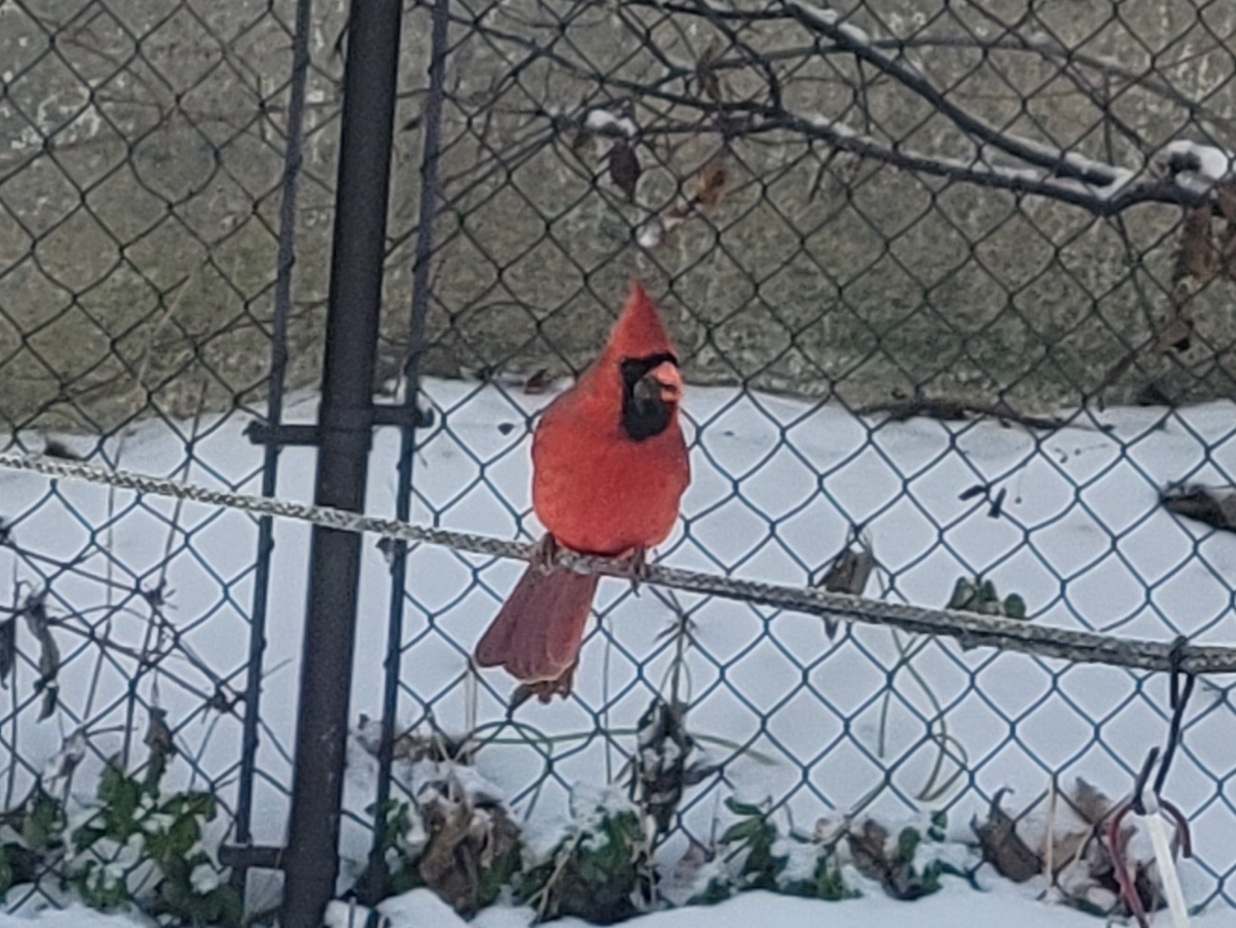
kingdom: Animalia
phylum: Chordata
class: Aves
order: Passeriformes
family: Cardinalidae
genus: Cardinalis
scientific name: Cardinalis cardinalis
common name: Northern cardinal
